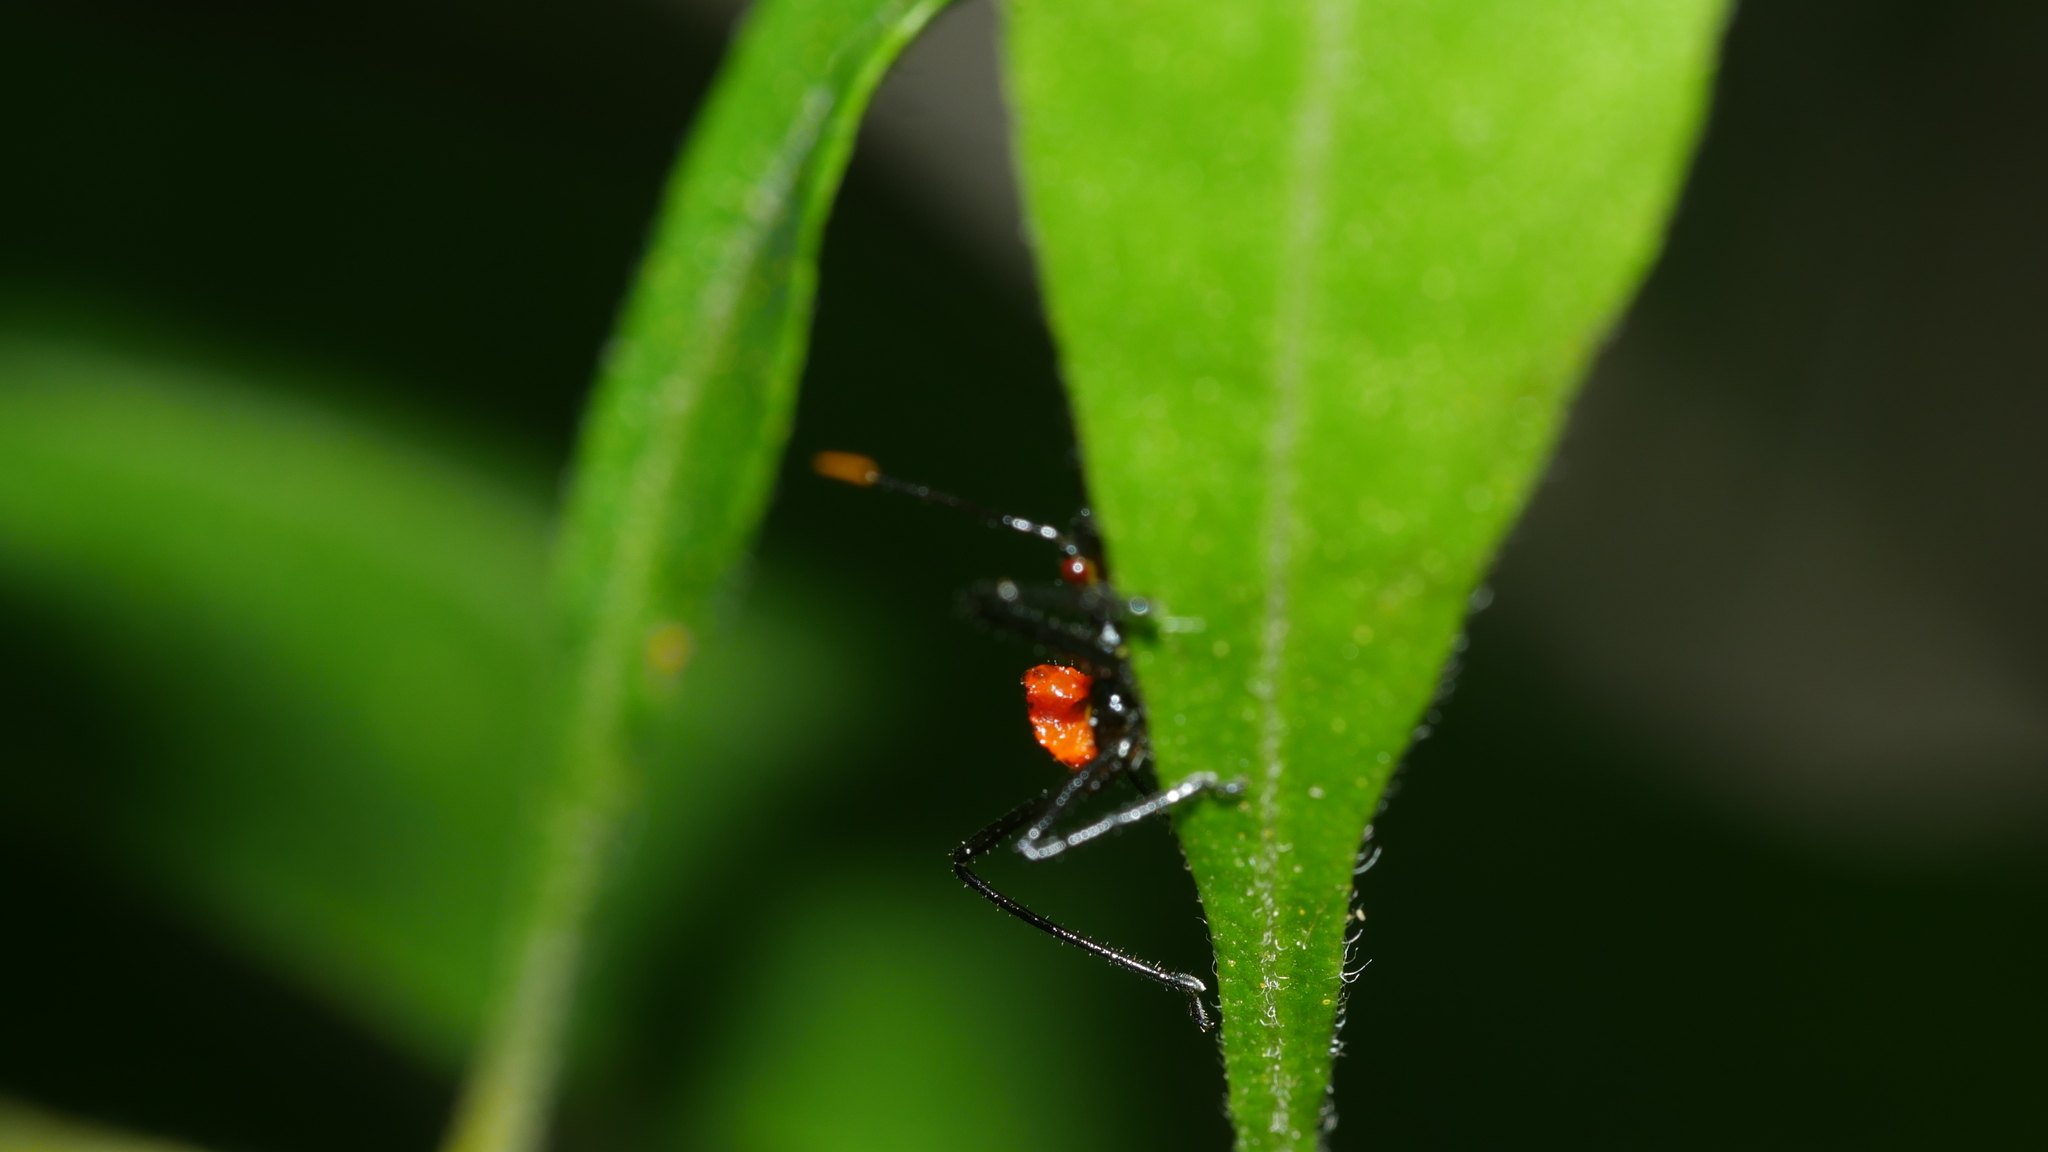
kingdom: Animalia
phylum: Arthropoda
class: Insecta
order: Hemiptera
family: Reduviidae
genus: Arilus
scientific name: Arilus cristatus
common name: North american wheel bug
